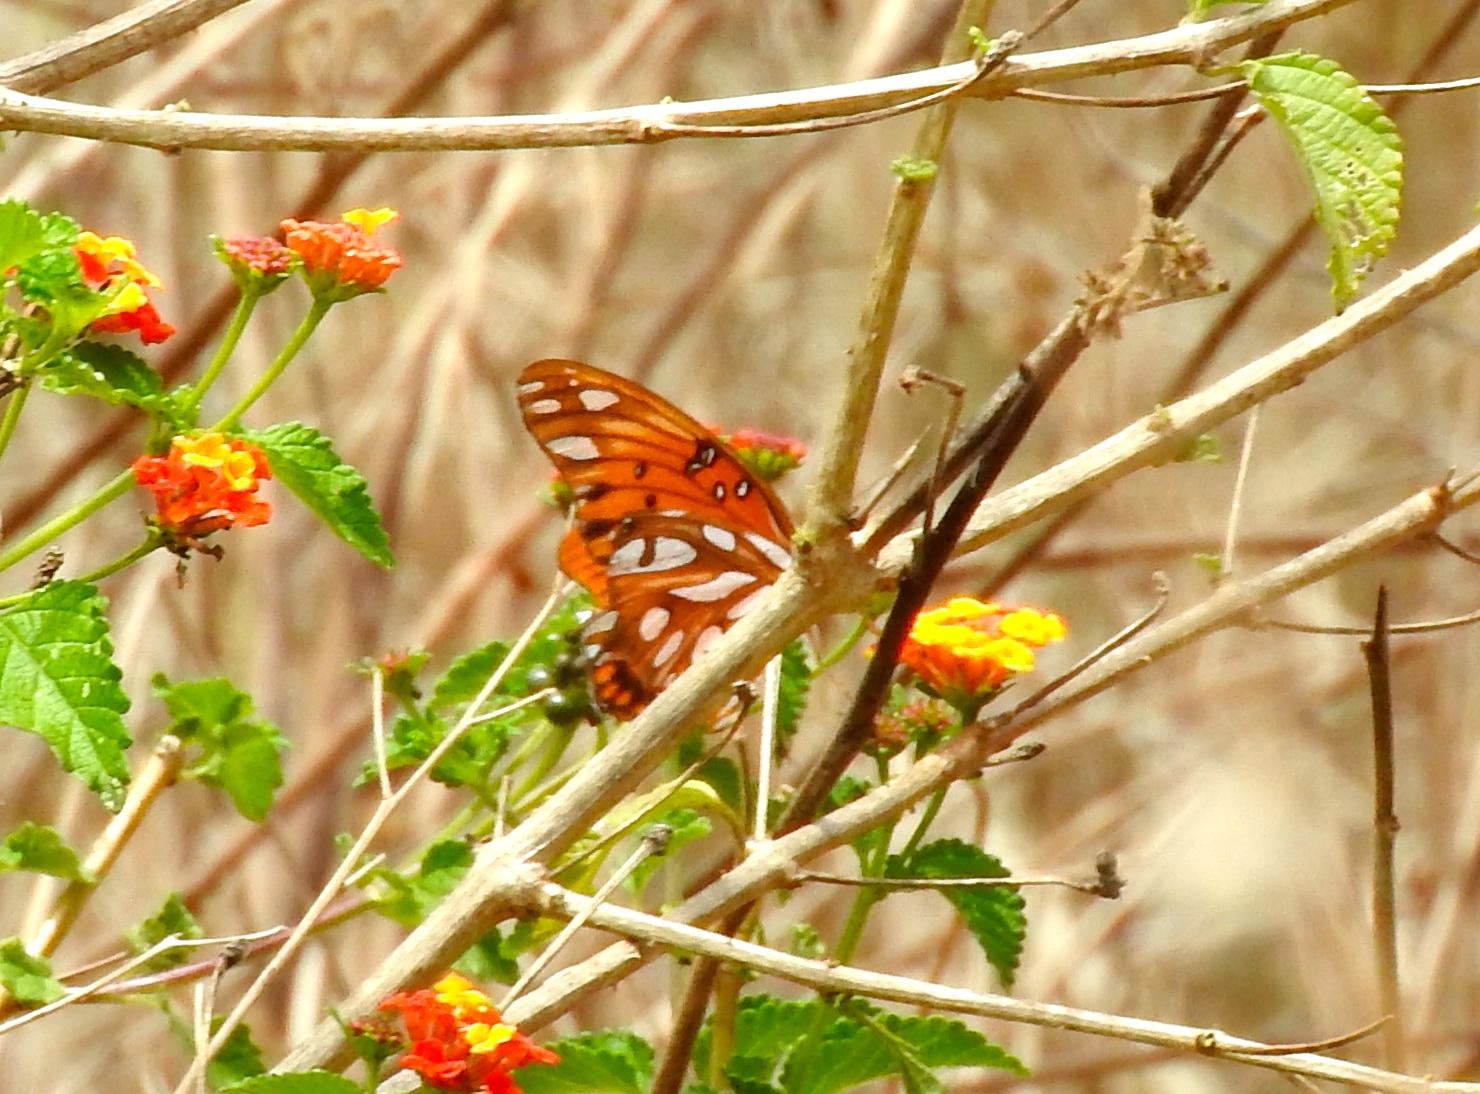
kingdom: Animalia
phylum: Arthropoda
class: Insecta
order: Lepidoptera
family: Nymphalidae
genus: Dione
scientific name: Dione vanillae
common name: Gulf fritillary
